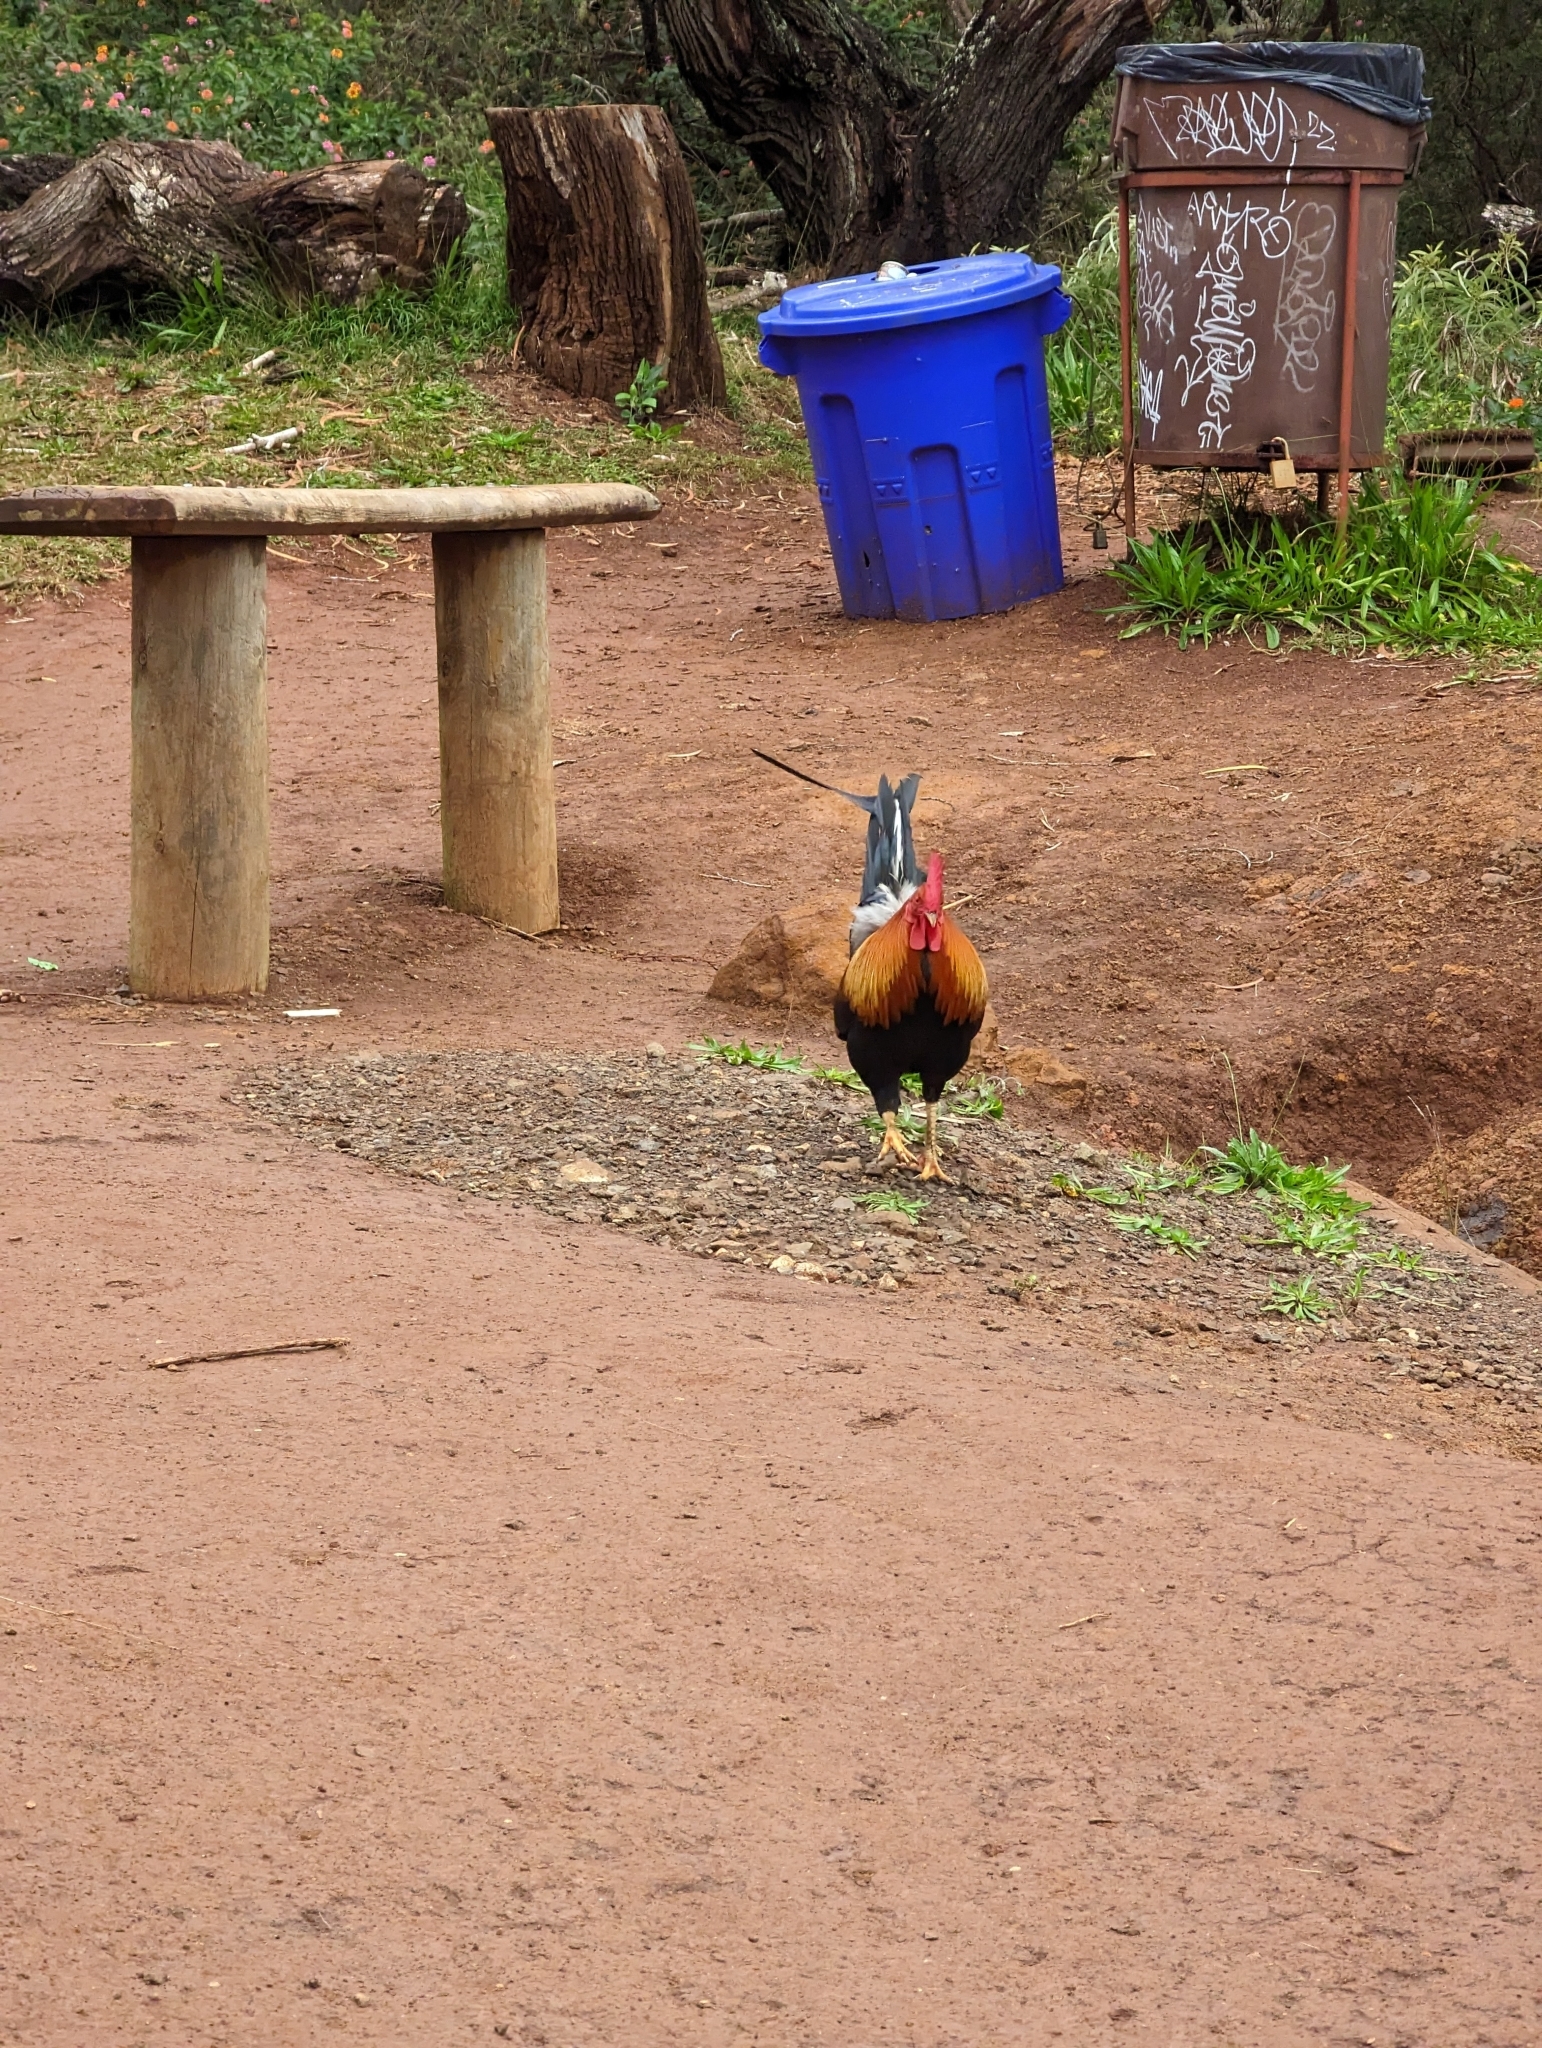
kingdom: Animalia
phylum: Chordata
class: Aves
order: Galliformes
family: Phasianidae
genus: Gallus
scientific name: Gallus gallus
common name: Red junglefowl
